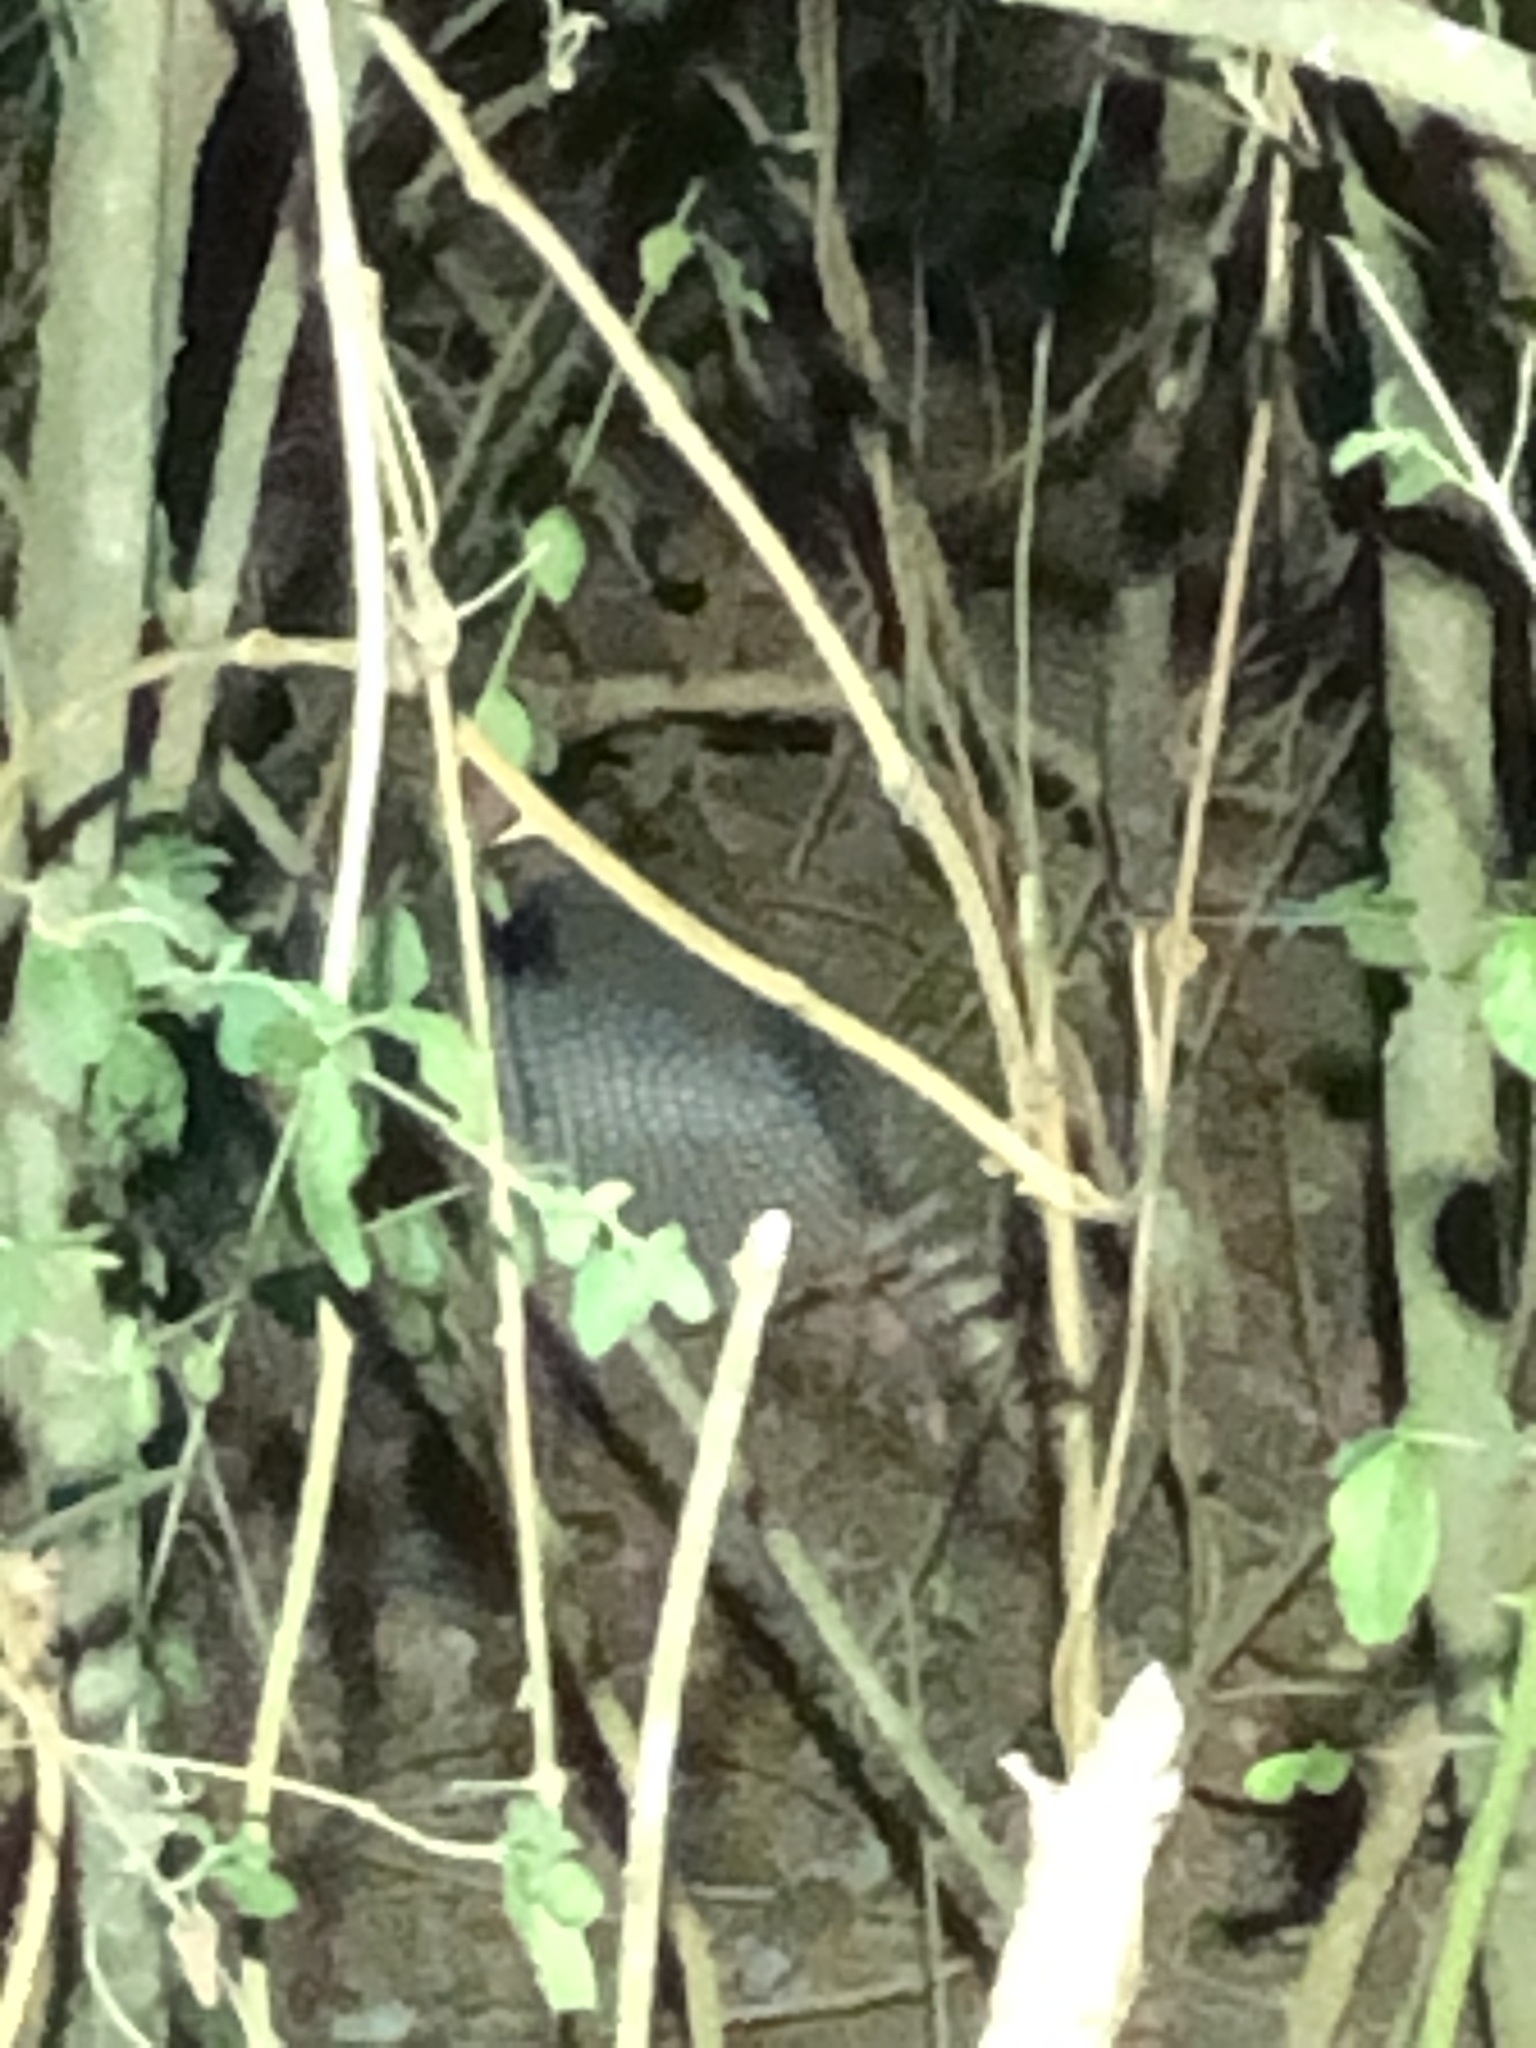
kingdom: Animalia
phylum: Chordata
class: Mammalia
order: Cingulata
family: Dasypodidae
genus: Dasypus
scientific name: Dasypus novemcinctus
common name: Nine-banded armadillo
